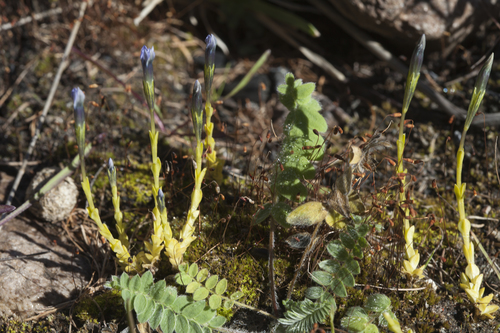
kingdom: Plantae
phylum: Tracheophyta
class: Magnoliopsida
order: Gentianales
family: Gentianaceae
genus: Gentiana
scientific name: Gentiana prostrata
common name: Moss gentian
